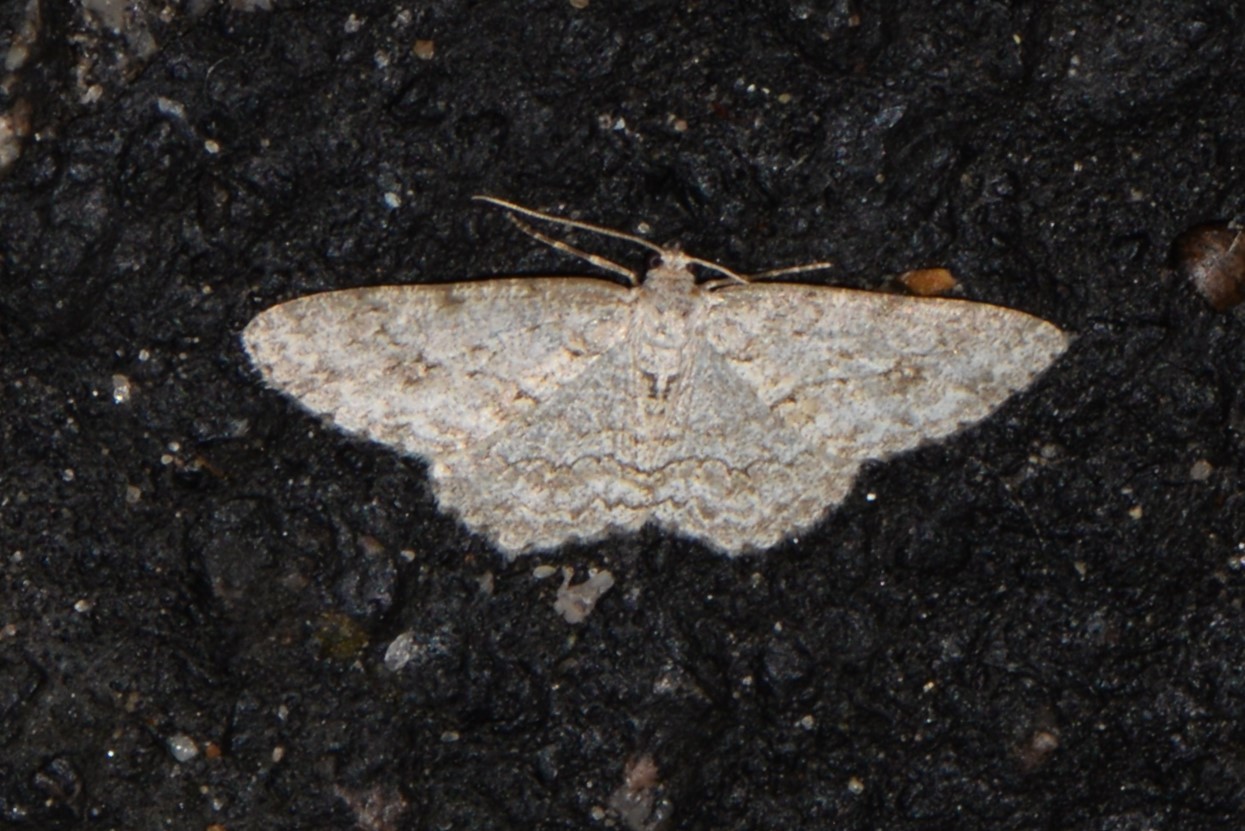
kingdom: Animalia
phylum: Arthropoda
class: Insecta
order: Lepidoptera
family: Geometridae
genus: Ectropis
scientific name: Ectropis crepuscularia
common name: Engrailed
